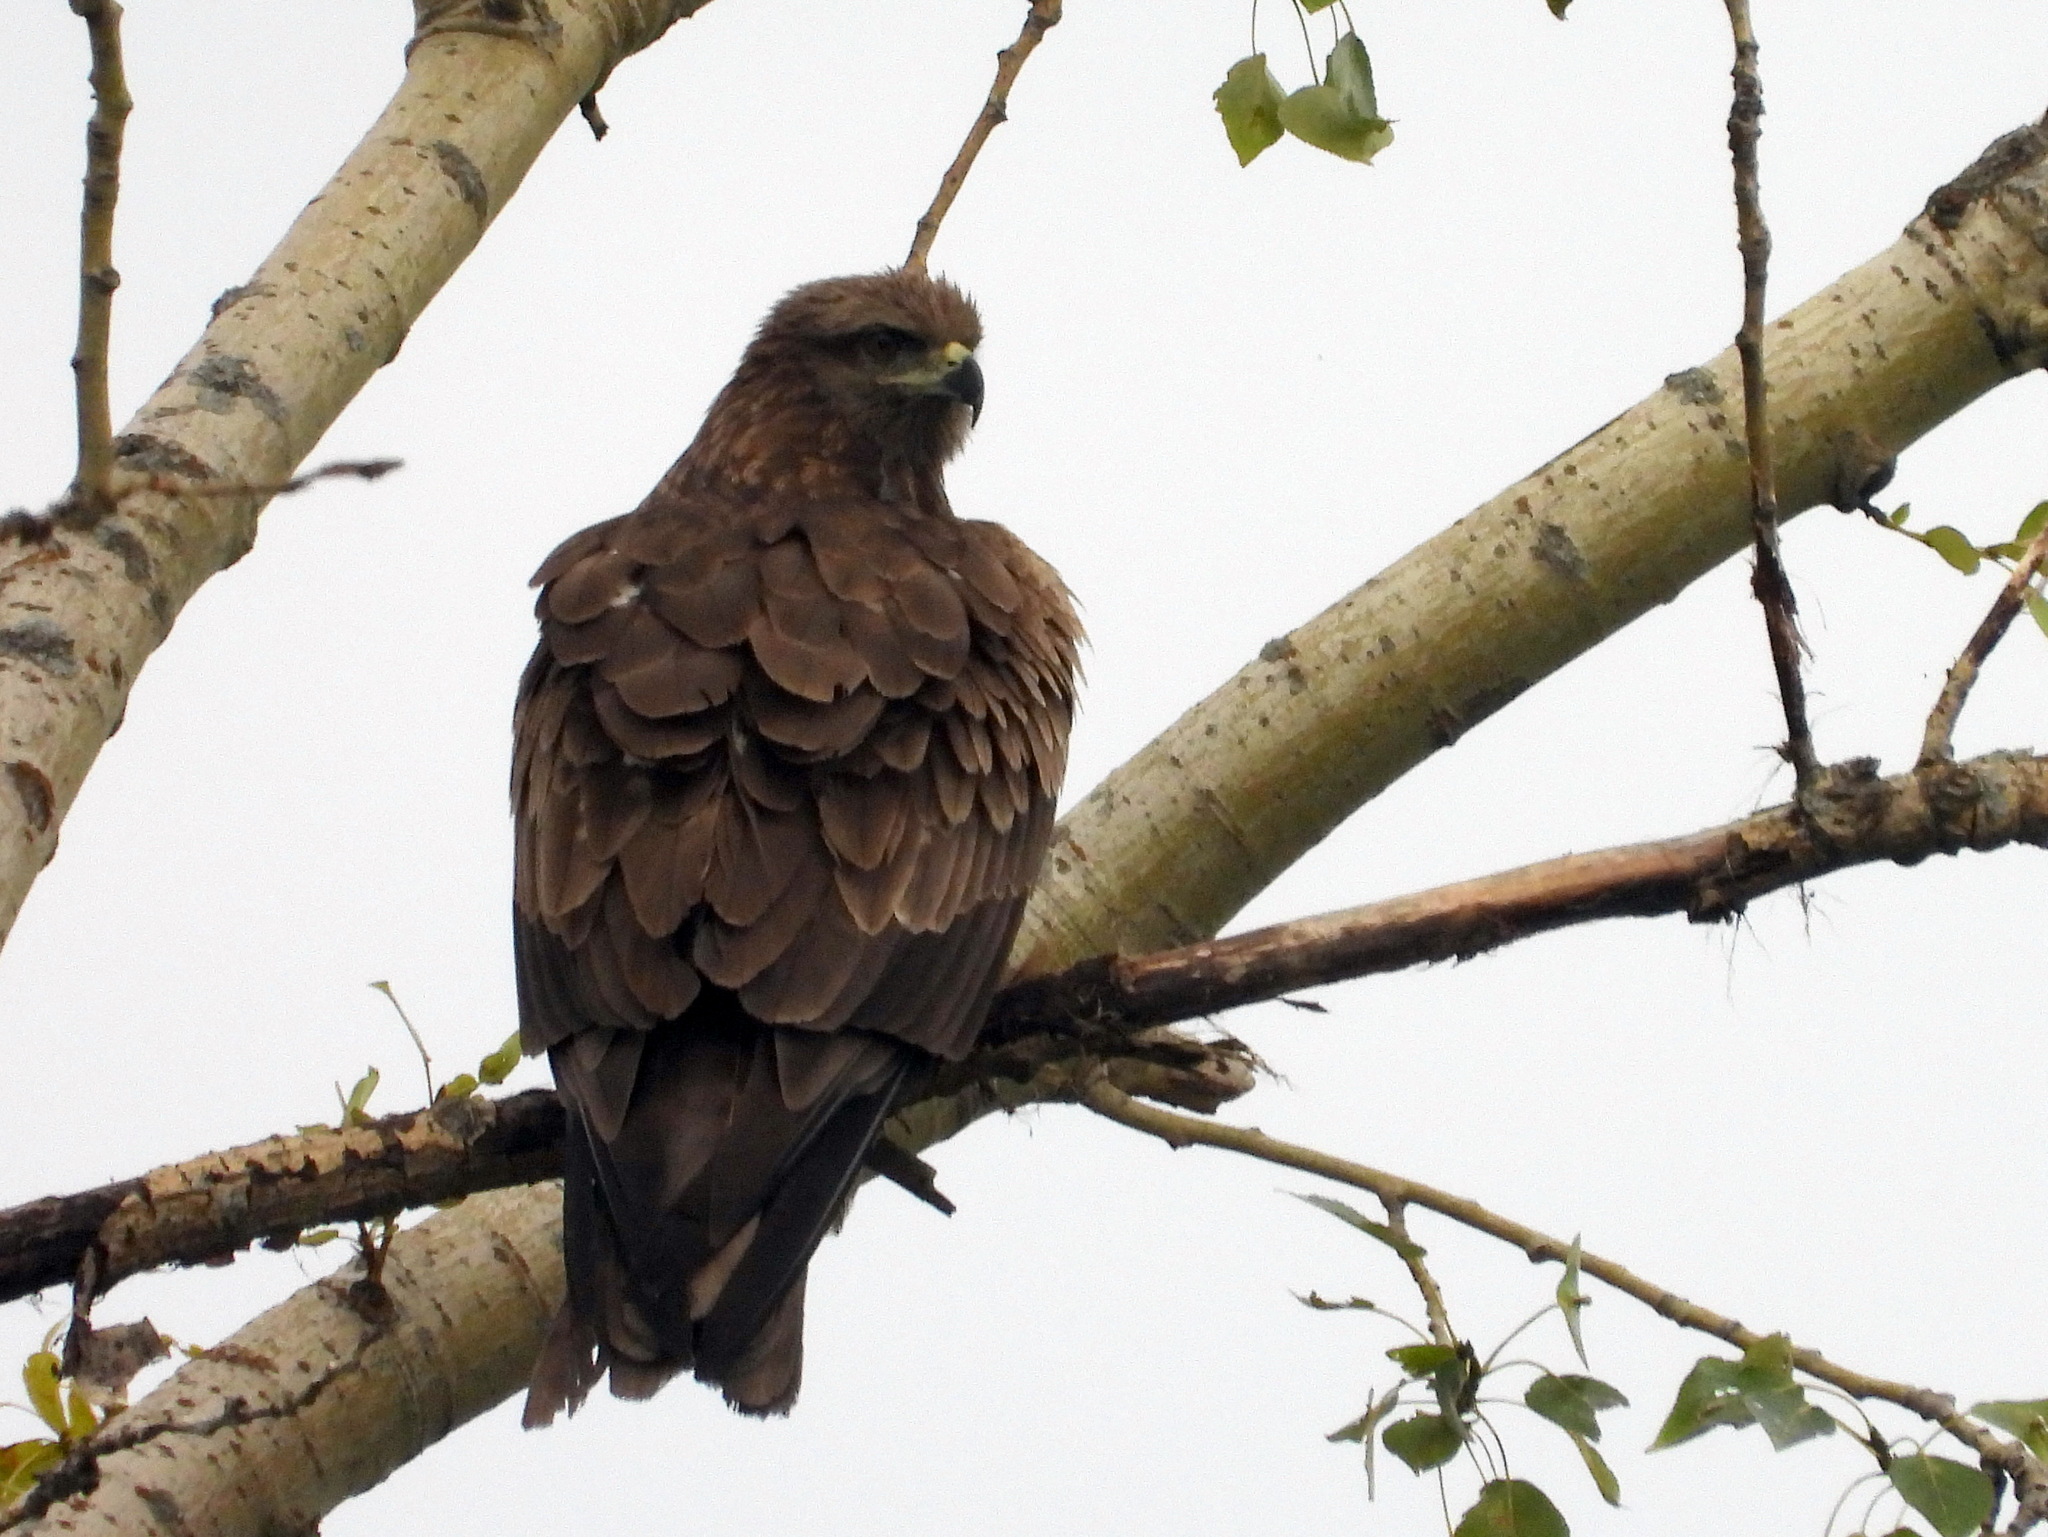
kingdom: Animalia
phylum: Chordata
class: Aves
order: Accipitriformes
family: Accipitridae
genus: Milvus
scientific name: Milvus migrans
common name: Black kite
